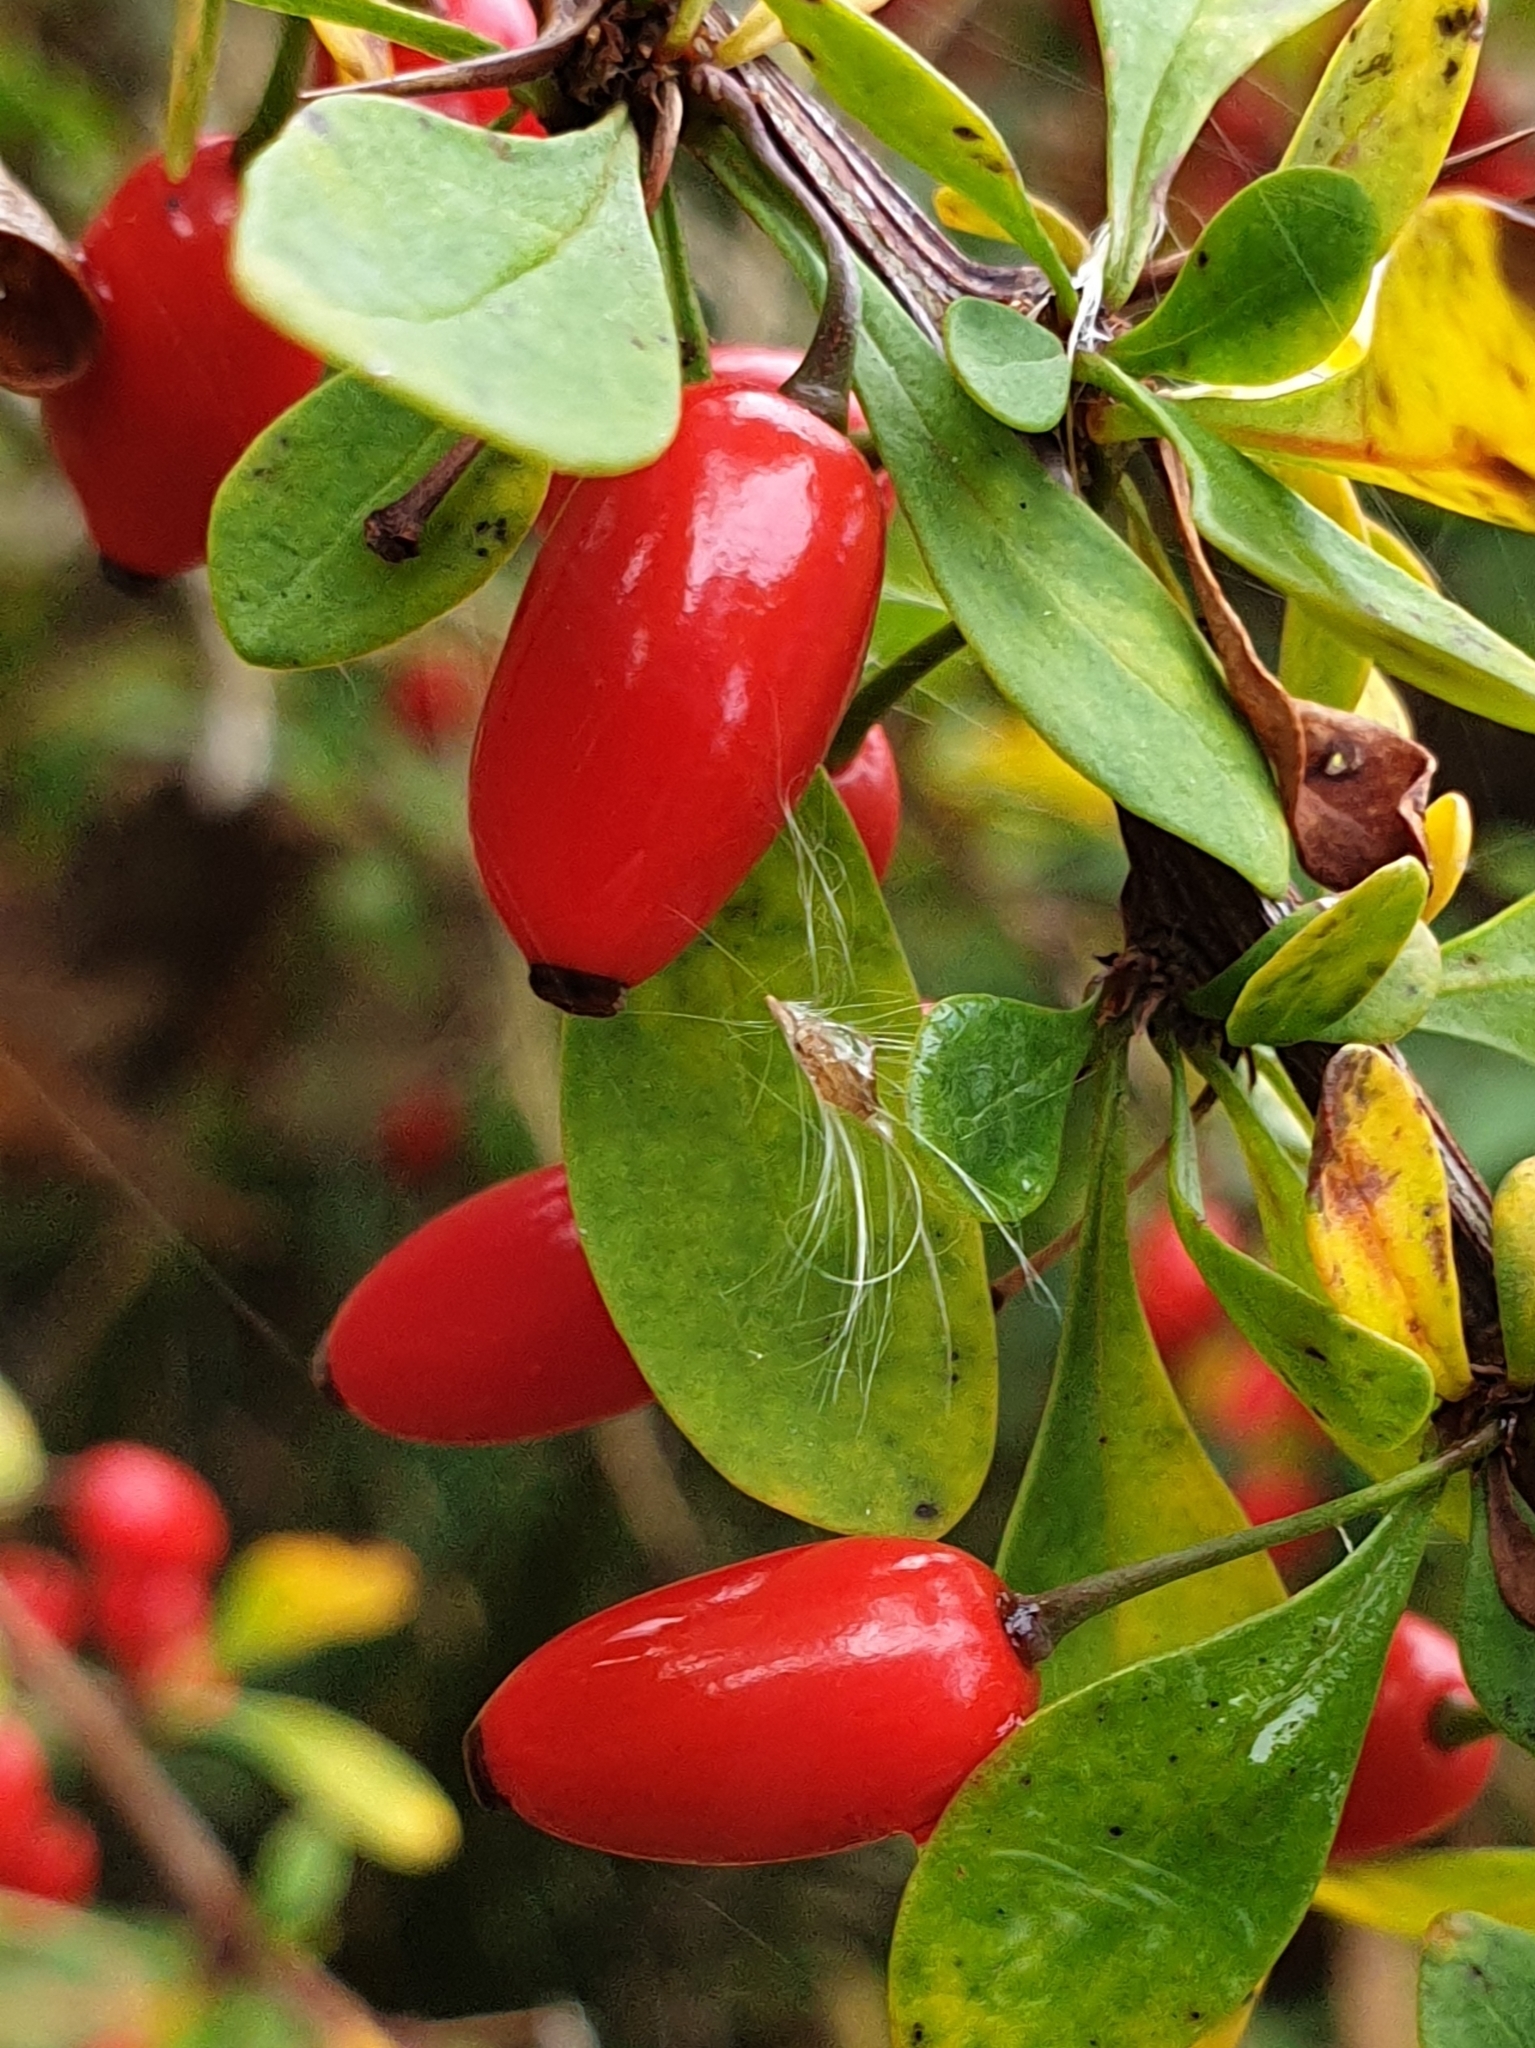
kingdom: Plantae
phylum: Tracheophyta
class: Magnoliopsida
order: Ranunculales
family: Berberidaceae
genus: Berberis
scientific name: Berberis thunbergii
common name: Japanese barberry
